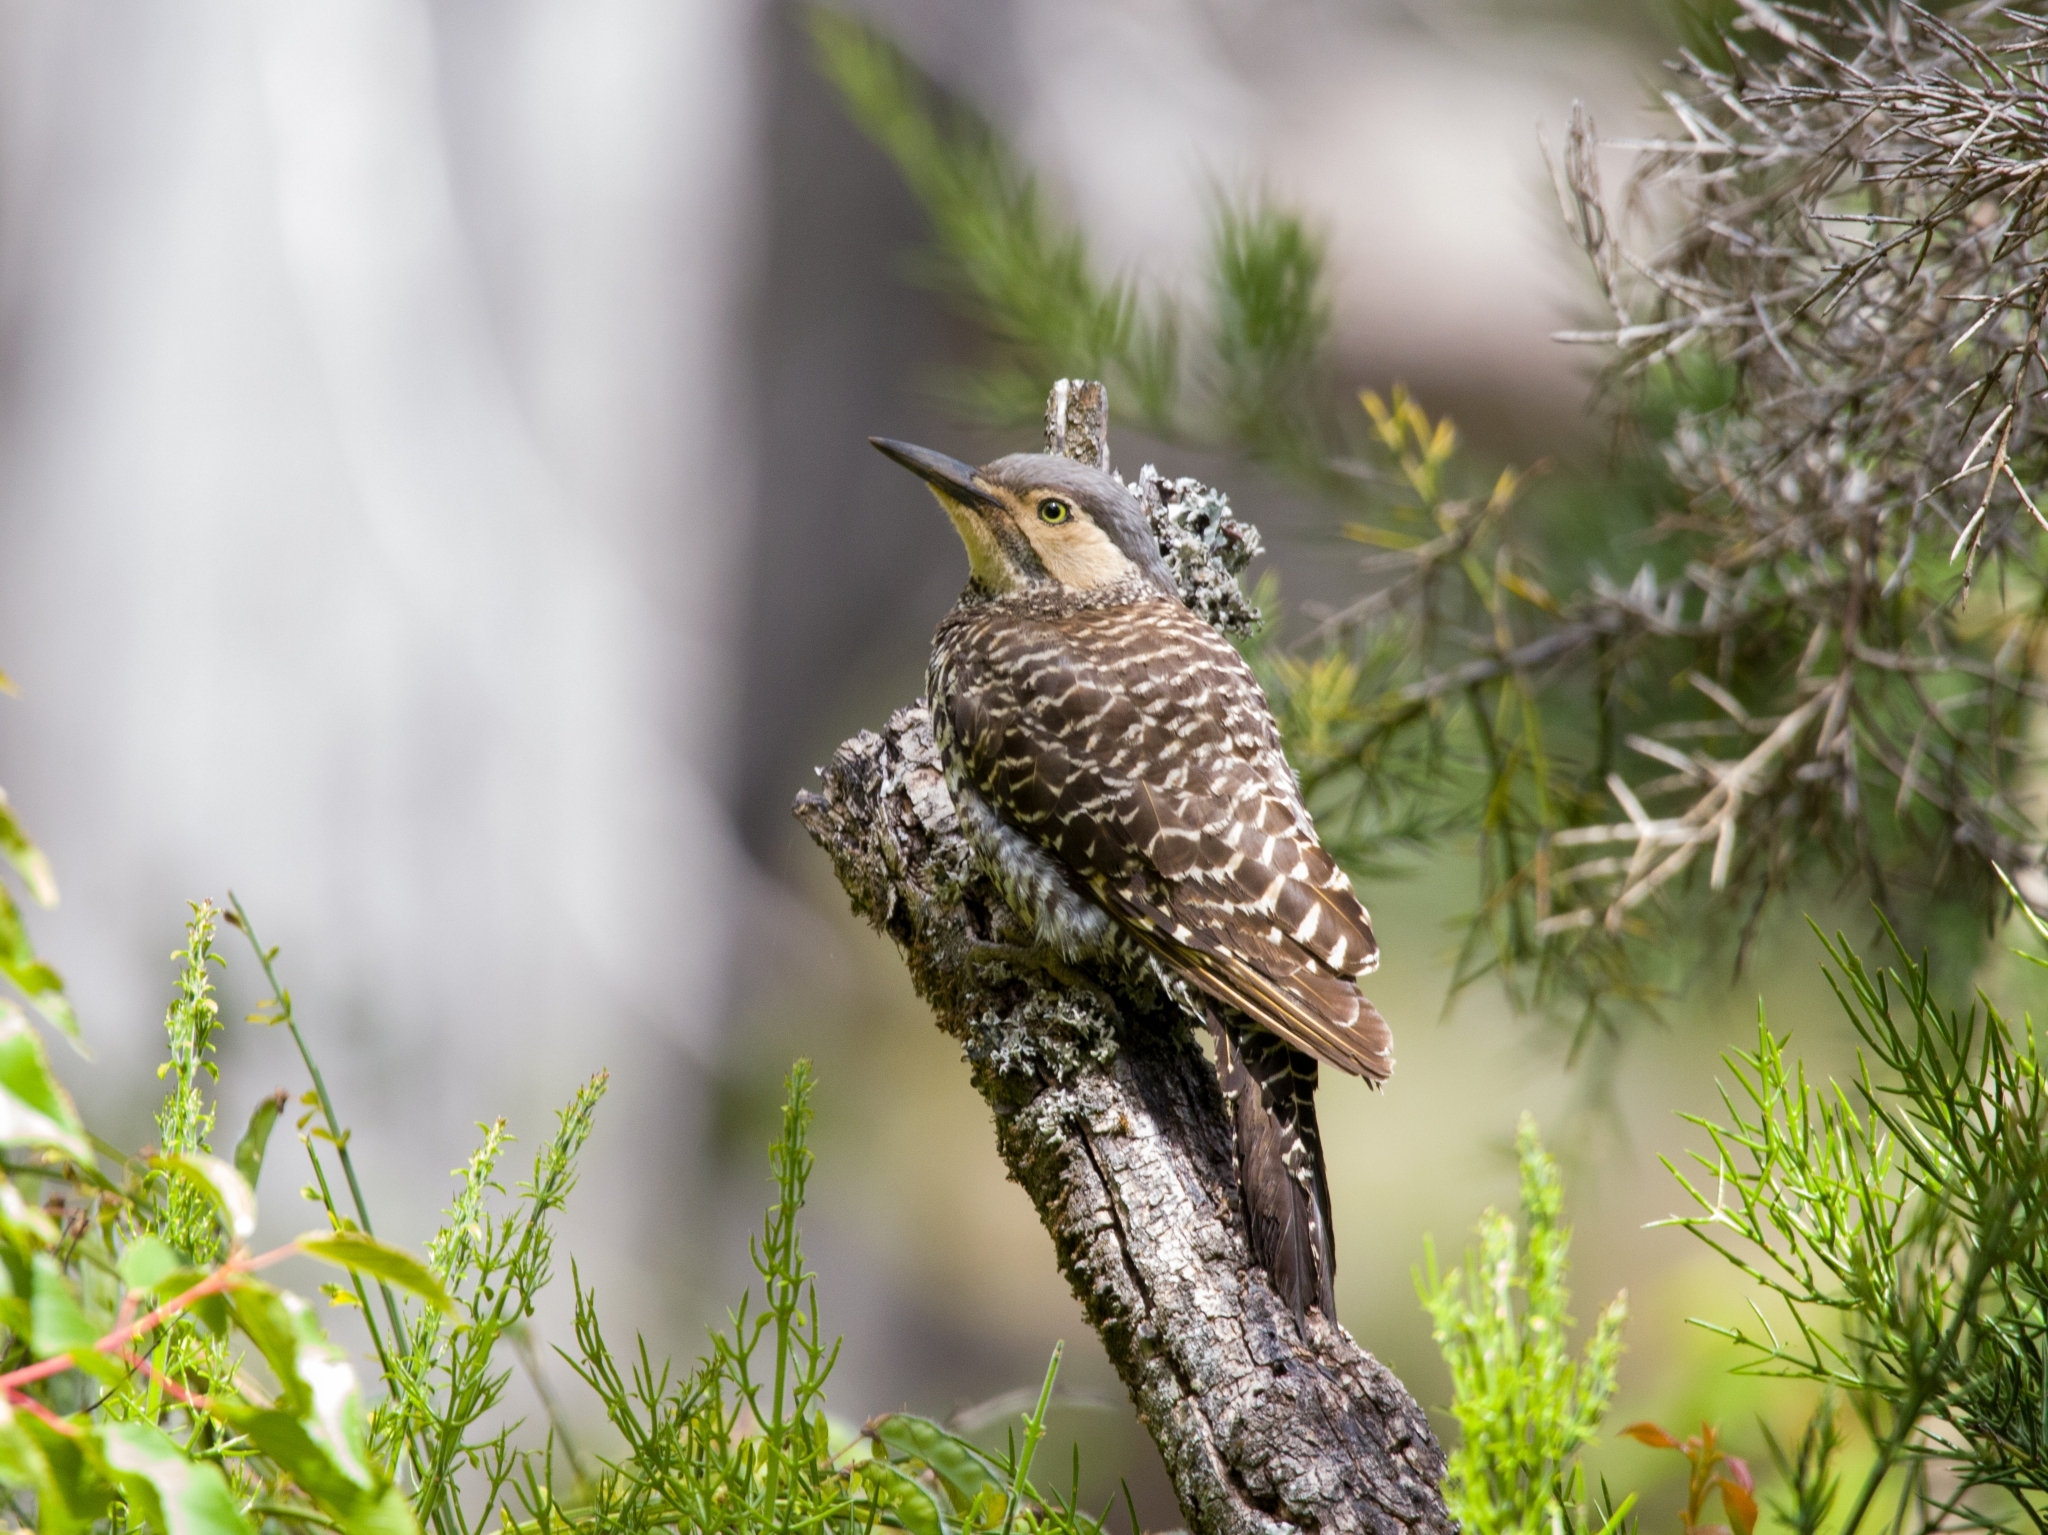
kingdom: Animalia
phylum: Chordata
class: Aves
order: Piciformes
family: Picidae
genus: Colaptes
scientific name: Colaptes pitius
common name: Chilean flicker
